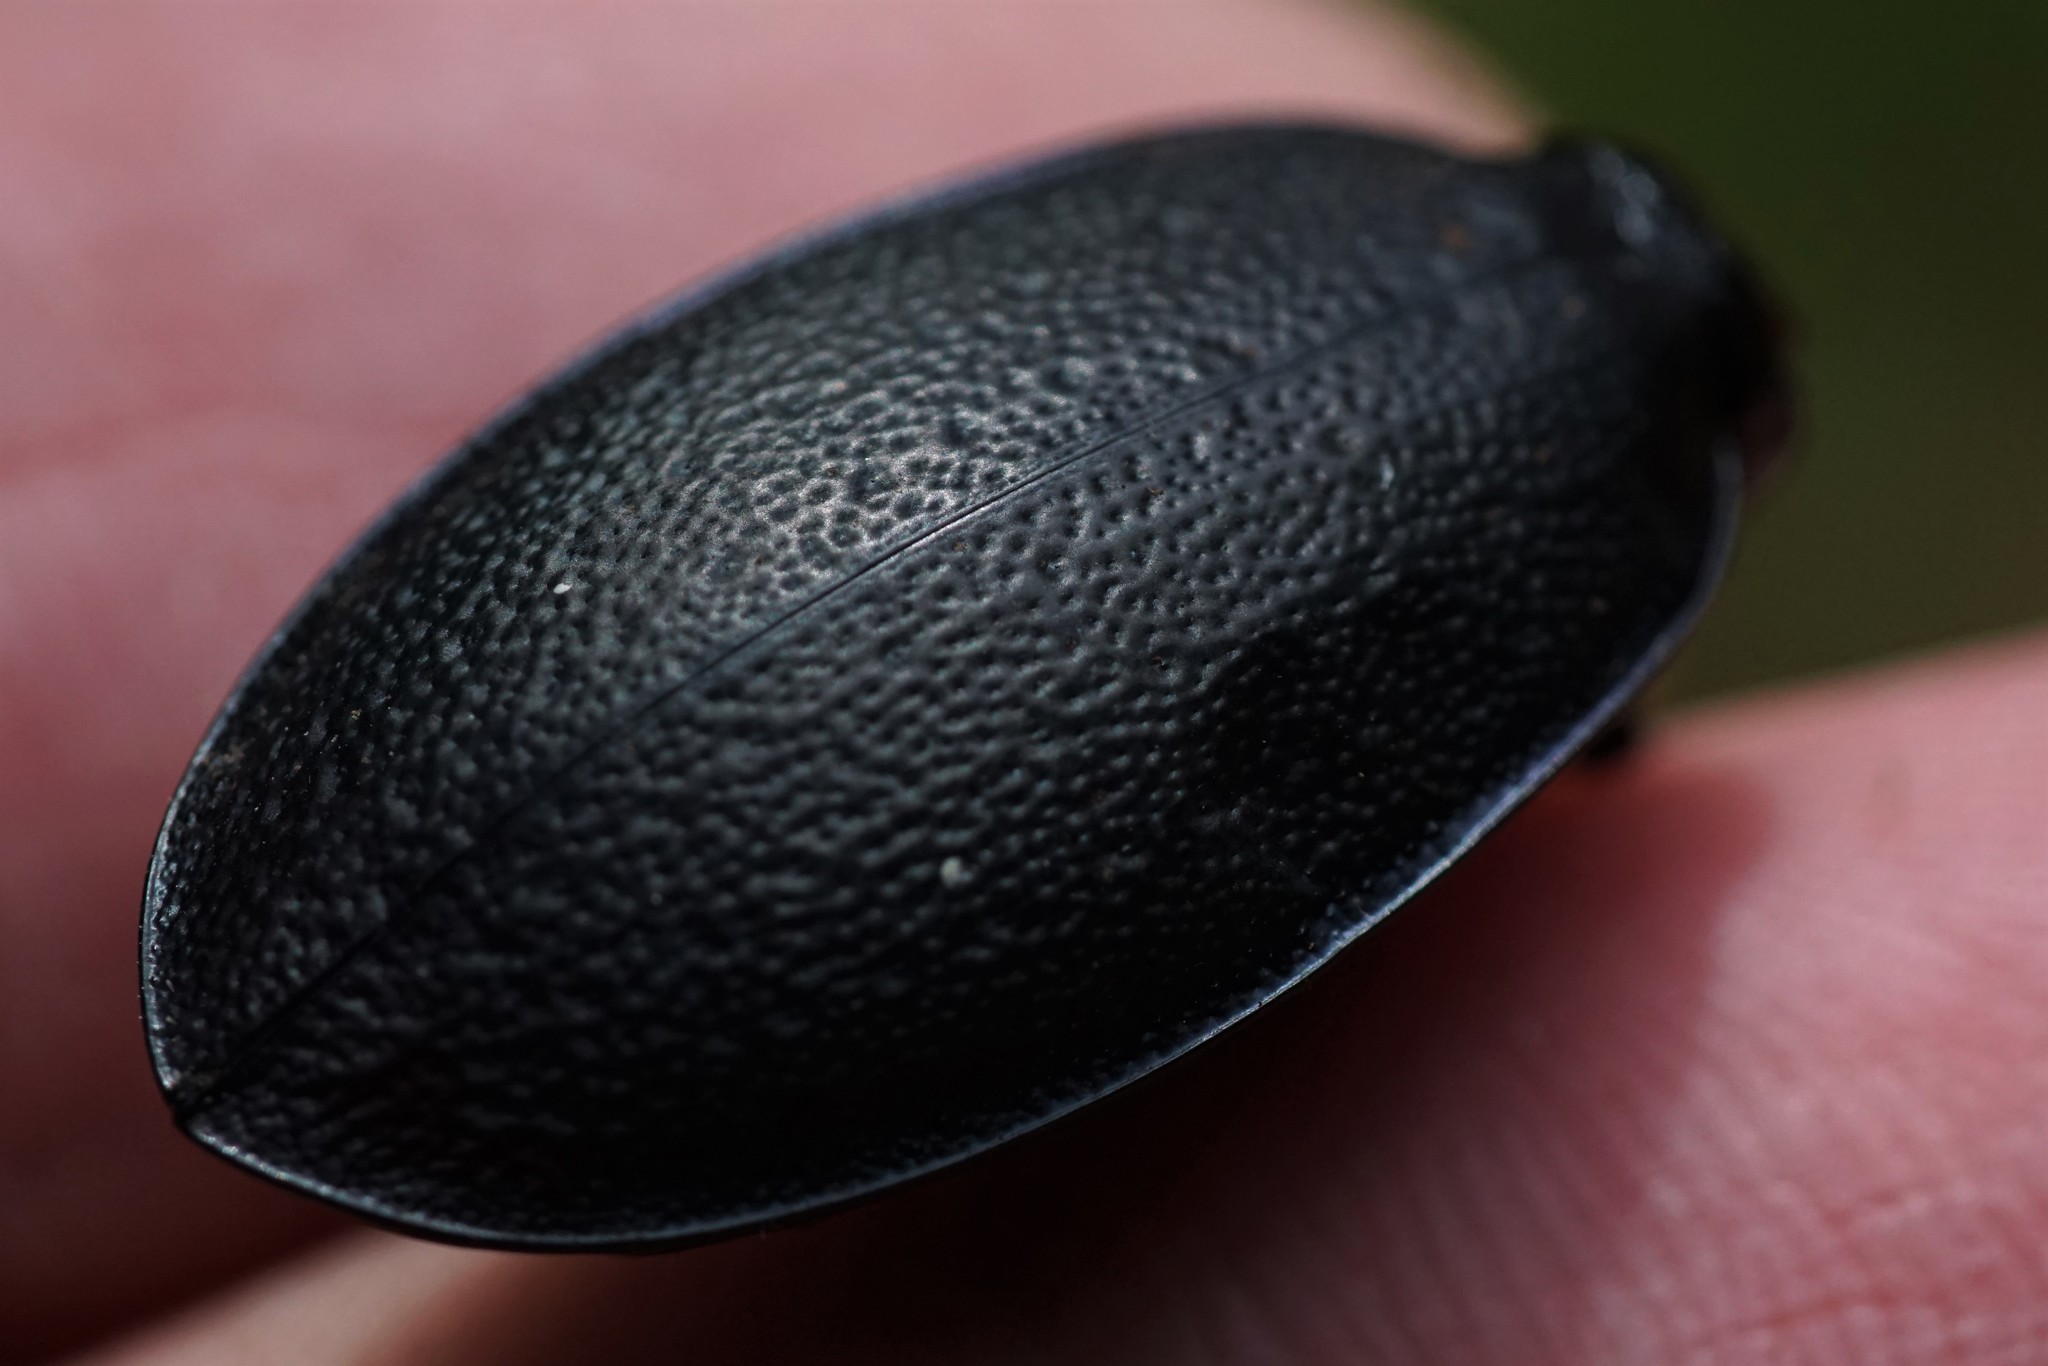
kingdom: Animalia
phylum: Arthropoda
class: Insecta
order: Coleoptera
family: Carabidae
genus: Carabus
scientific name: Carabus coriaceus
